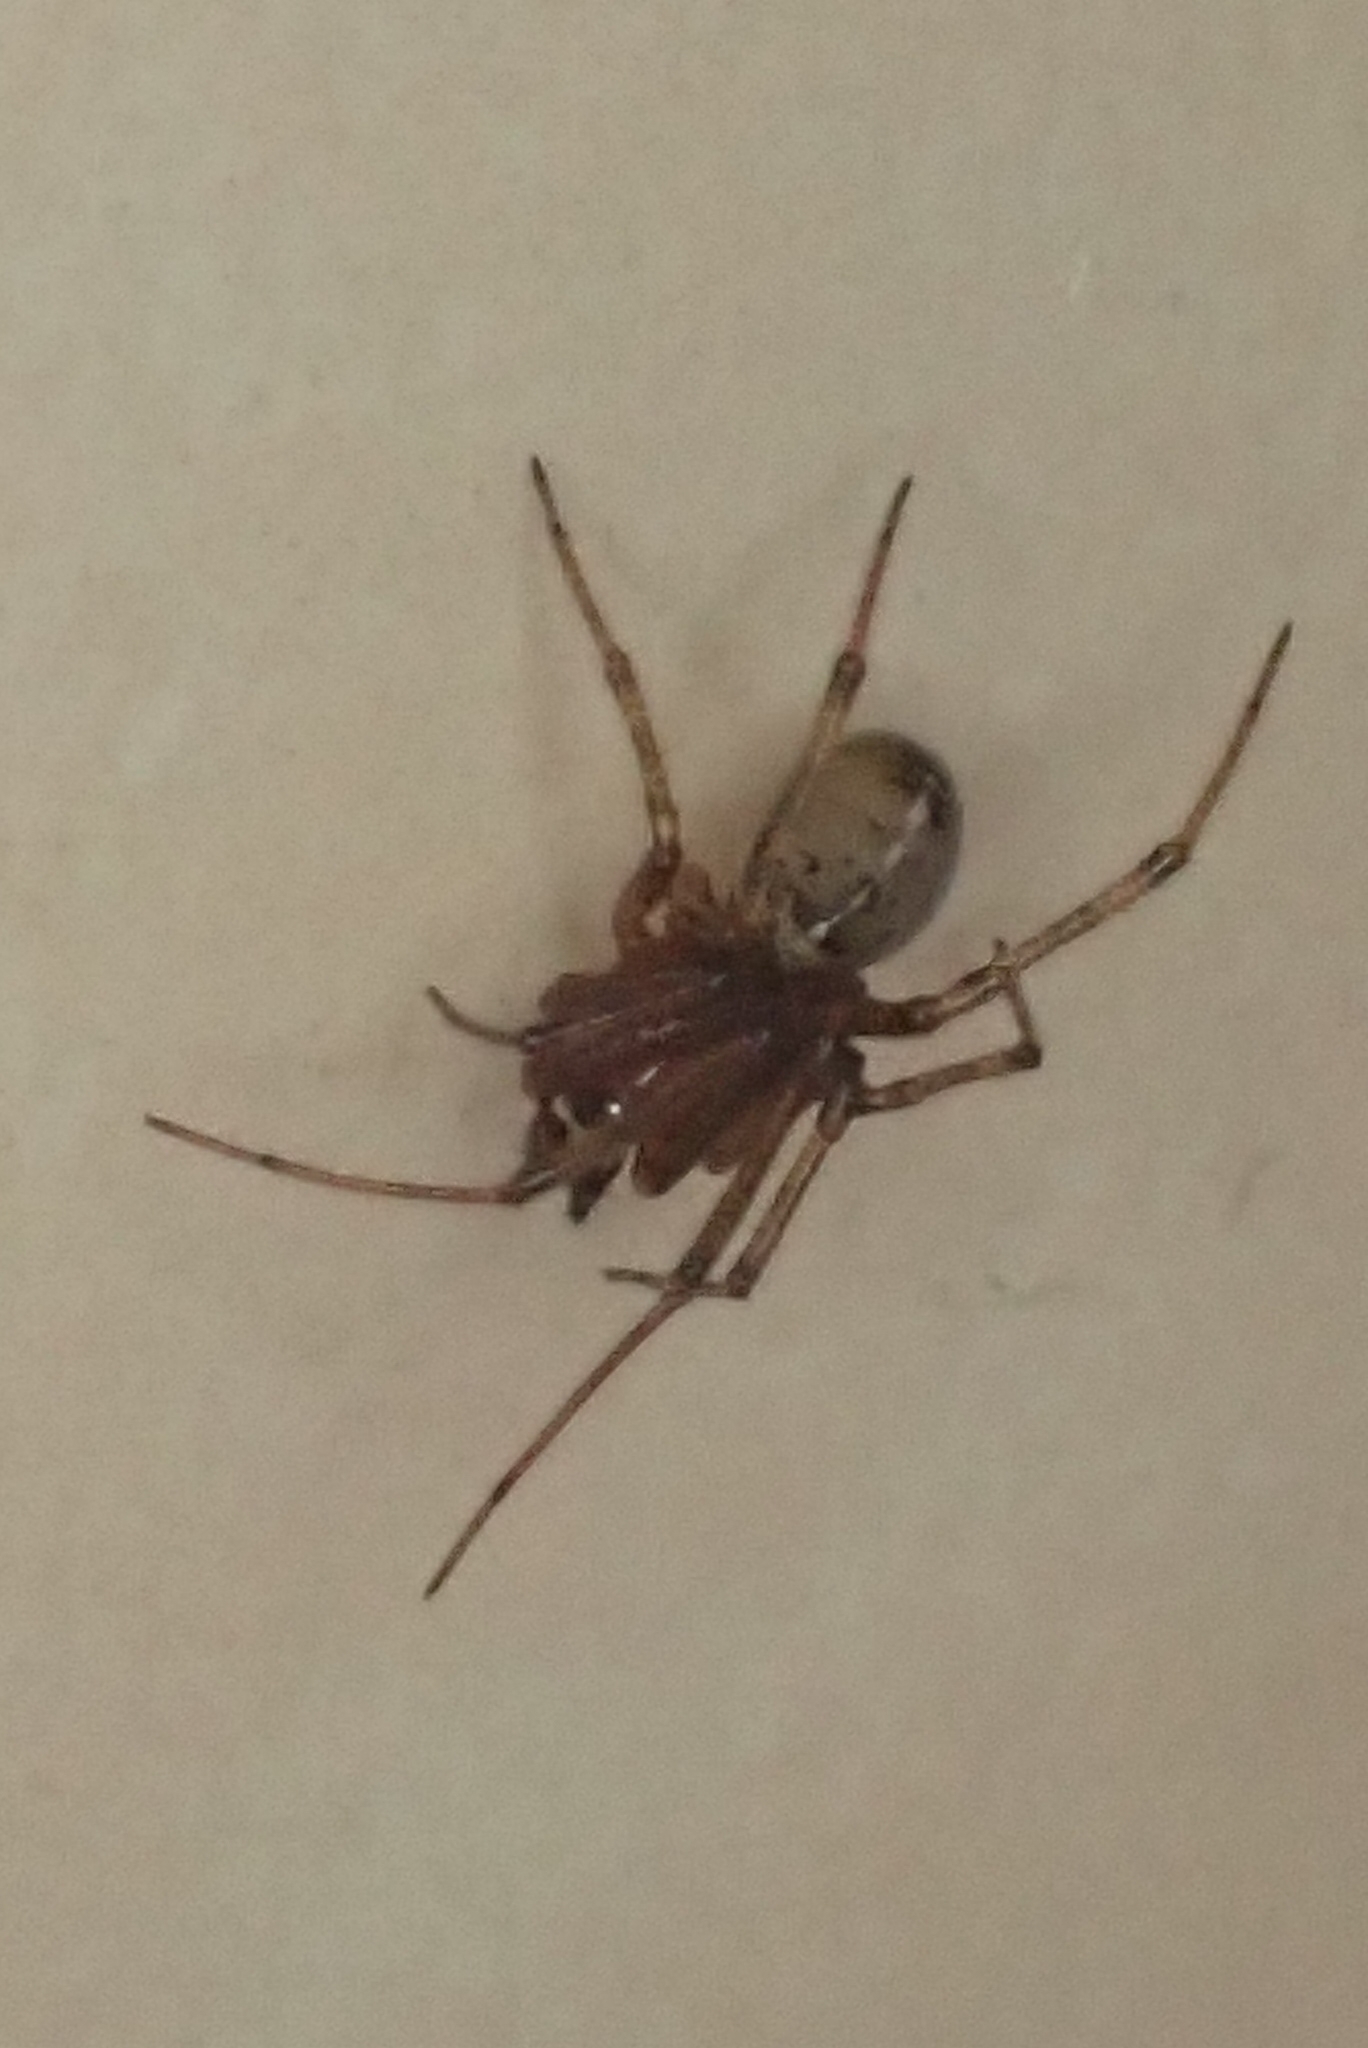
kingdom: Animalia
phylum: Arthropoda
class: Arachnida
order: Araneae
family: Theridiidae
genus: Steatoda
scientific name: Steatoda castanea
